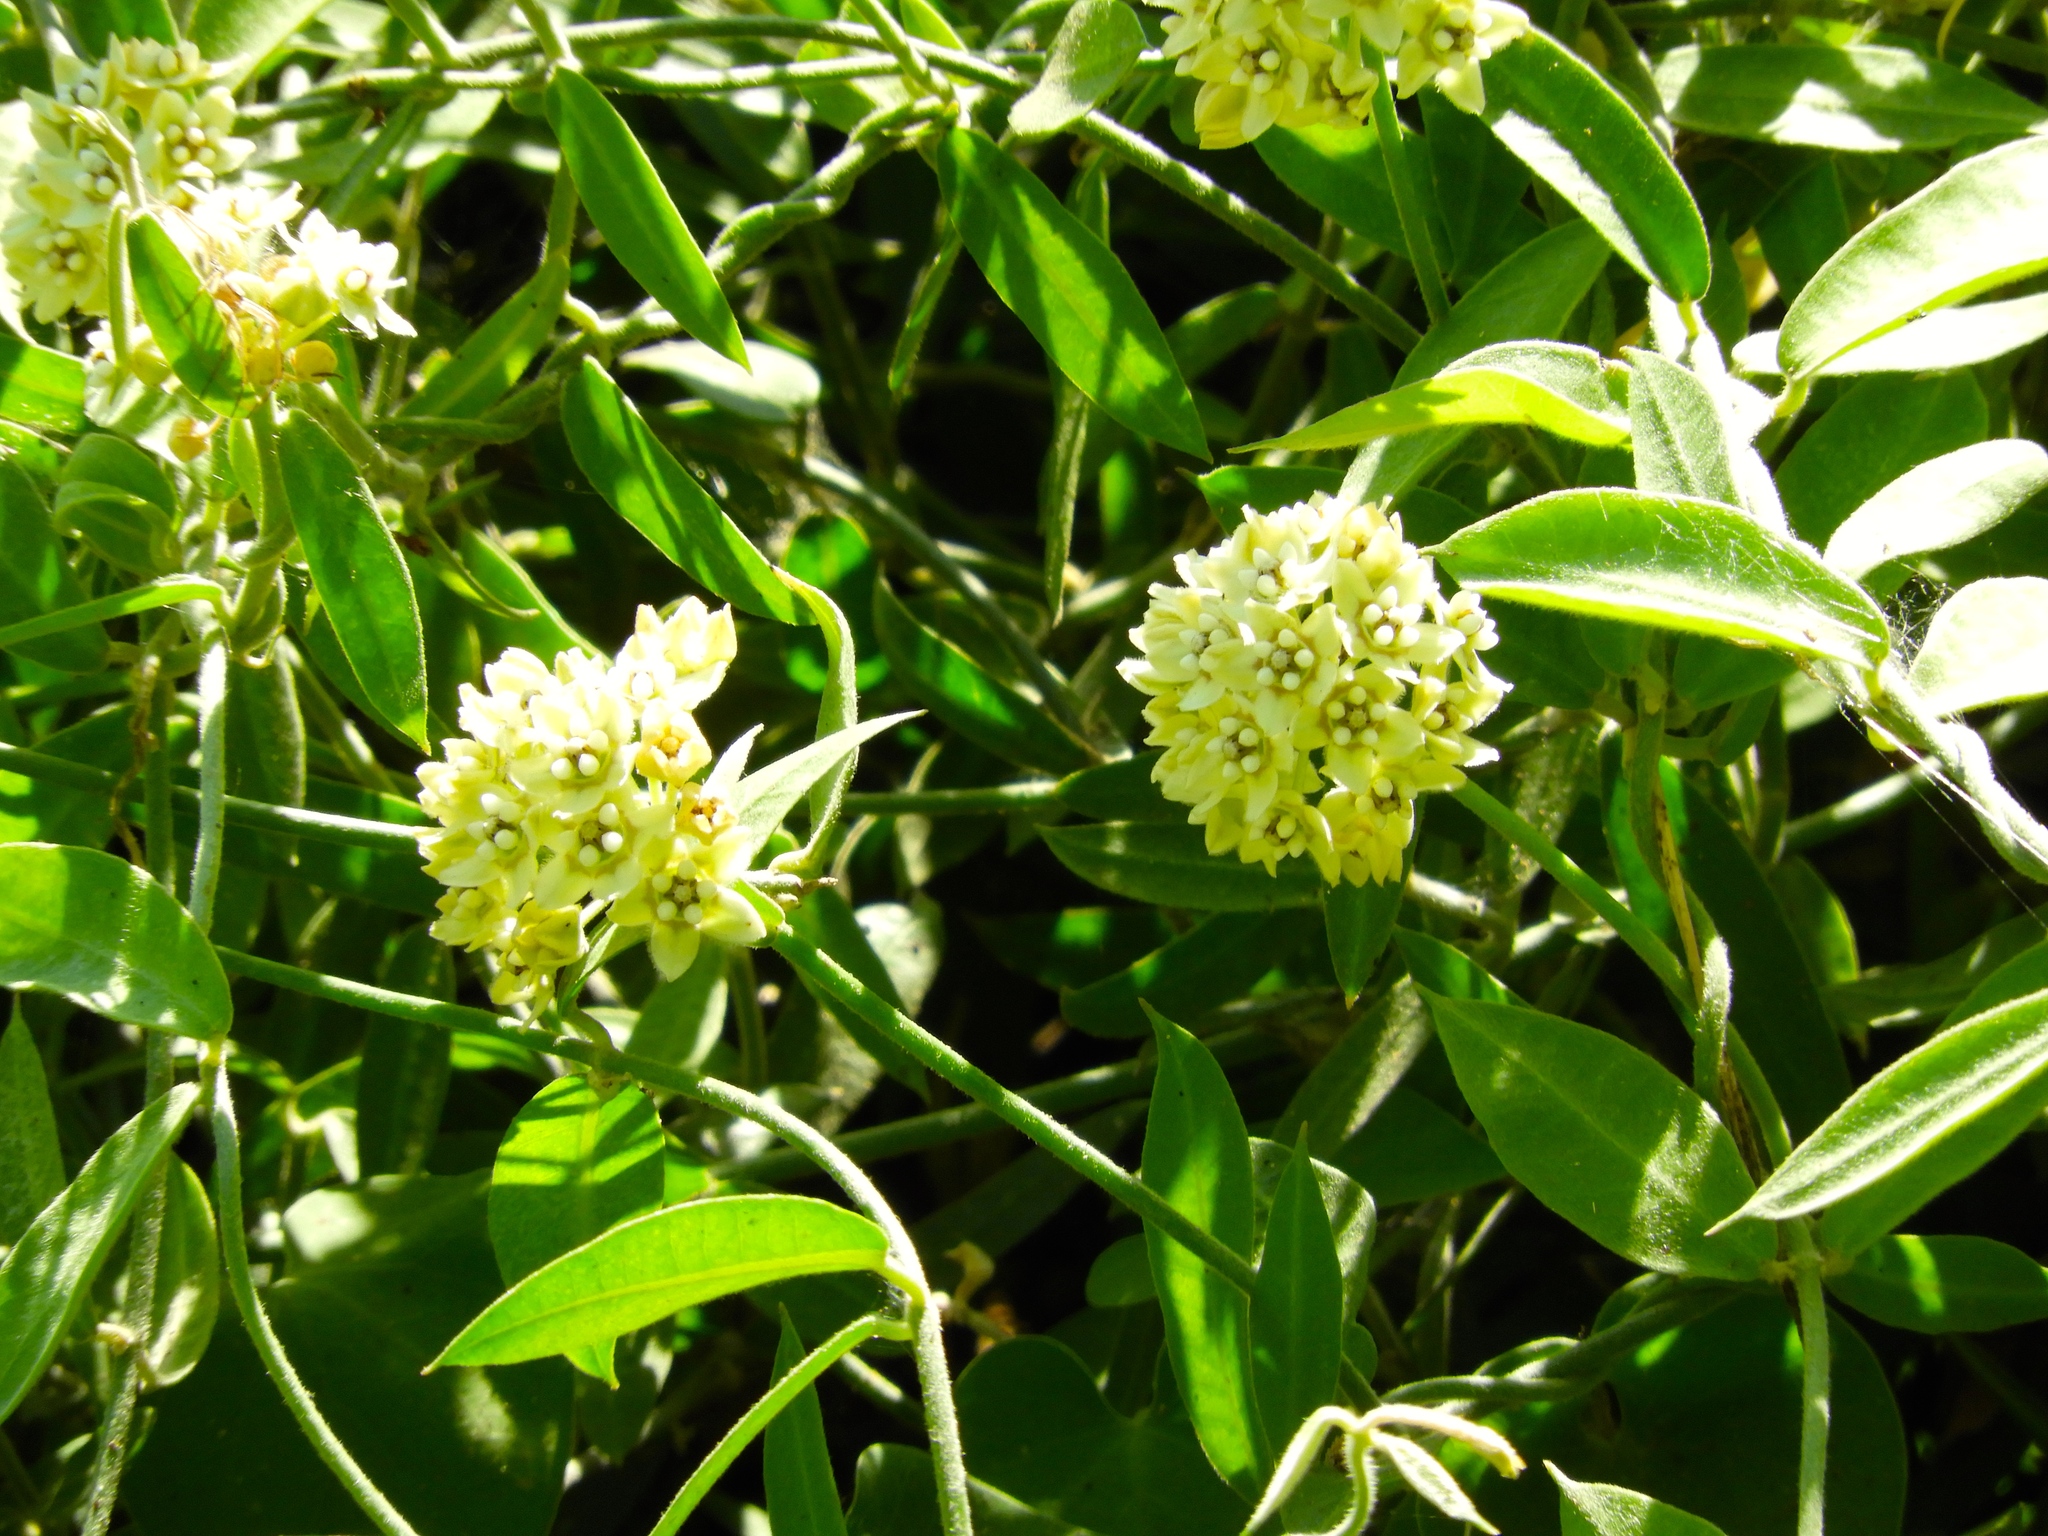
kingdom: Plantae
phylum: Tracheophyta
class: Magnoliopsida
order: Gentianales
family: Apocynaceae
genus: Funastrum
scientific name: Funastrum clausum
